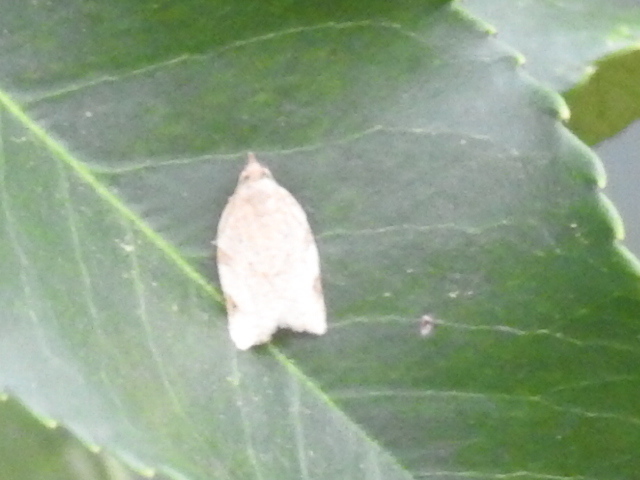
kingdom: Animalia
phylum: Arthropoda
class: Insecta
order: Lepidoptera
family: Tortricidae
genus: Clepsis
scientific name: Clepsis virescana
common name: Greenish apple moth
